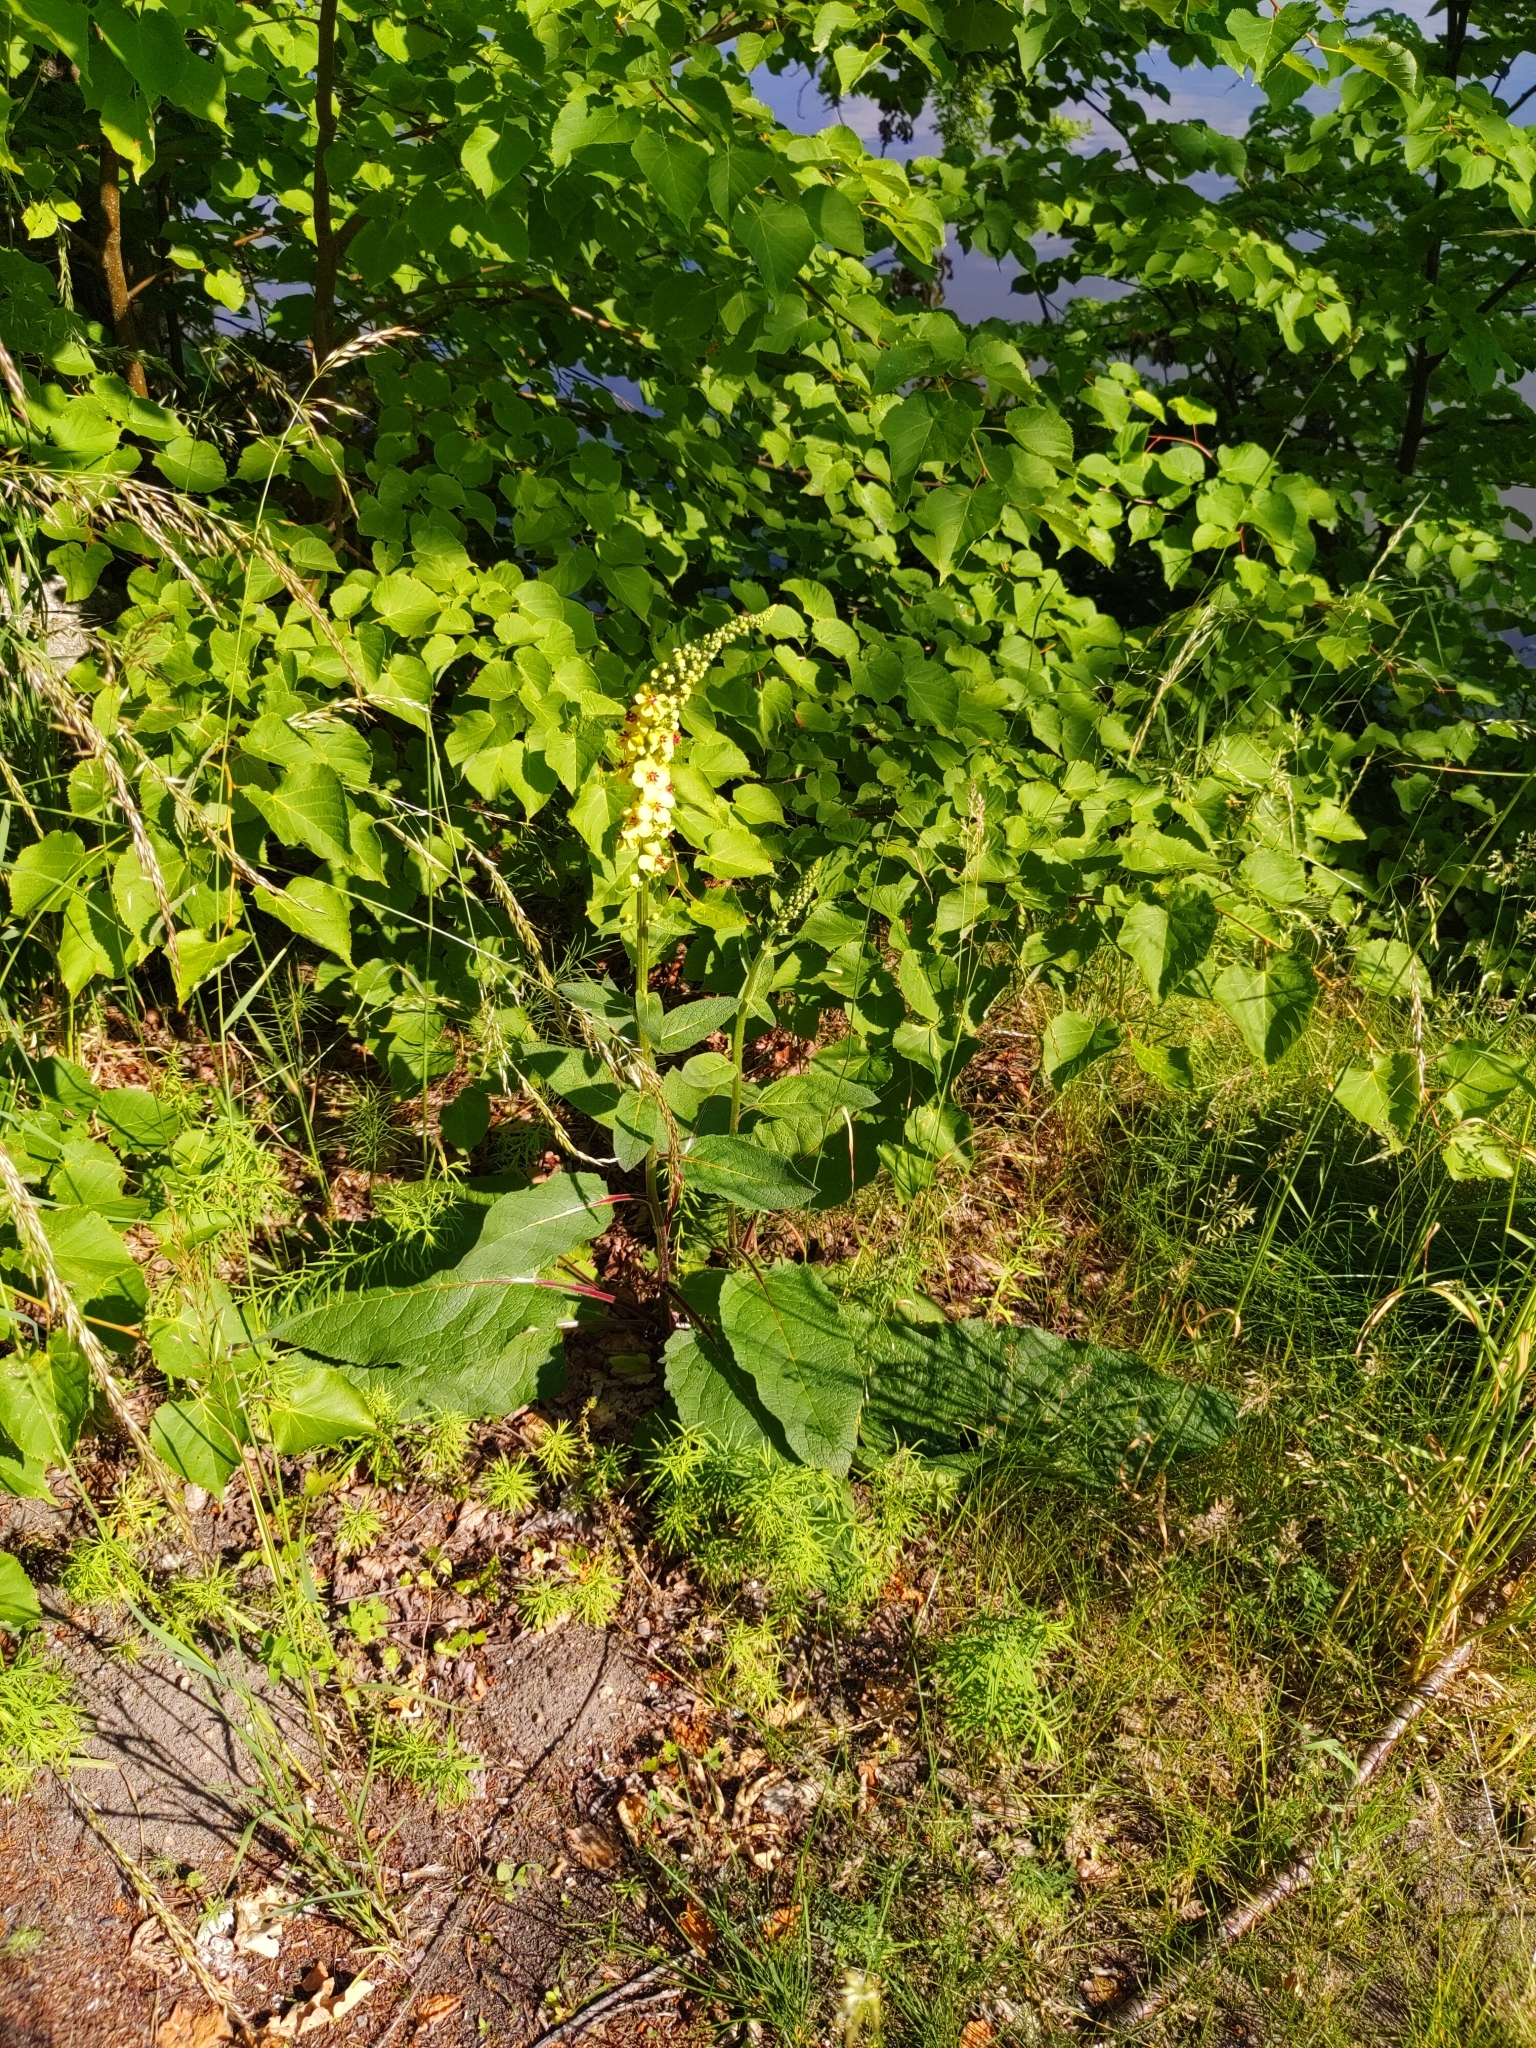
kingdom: Plantae
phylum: Tracheophyta
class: Magnoliopsida
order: Lamiales
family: Scrophulariaceae
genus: Verbascum
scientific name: Verbascum nigrum
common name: Dark mullein
